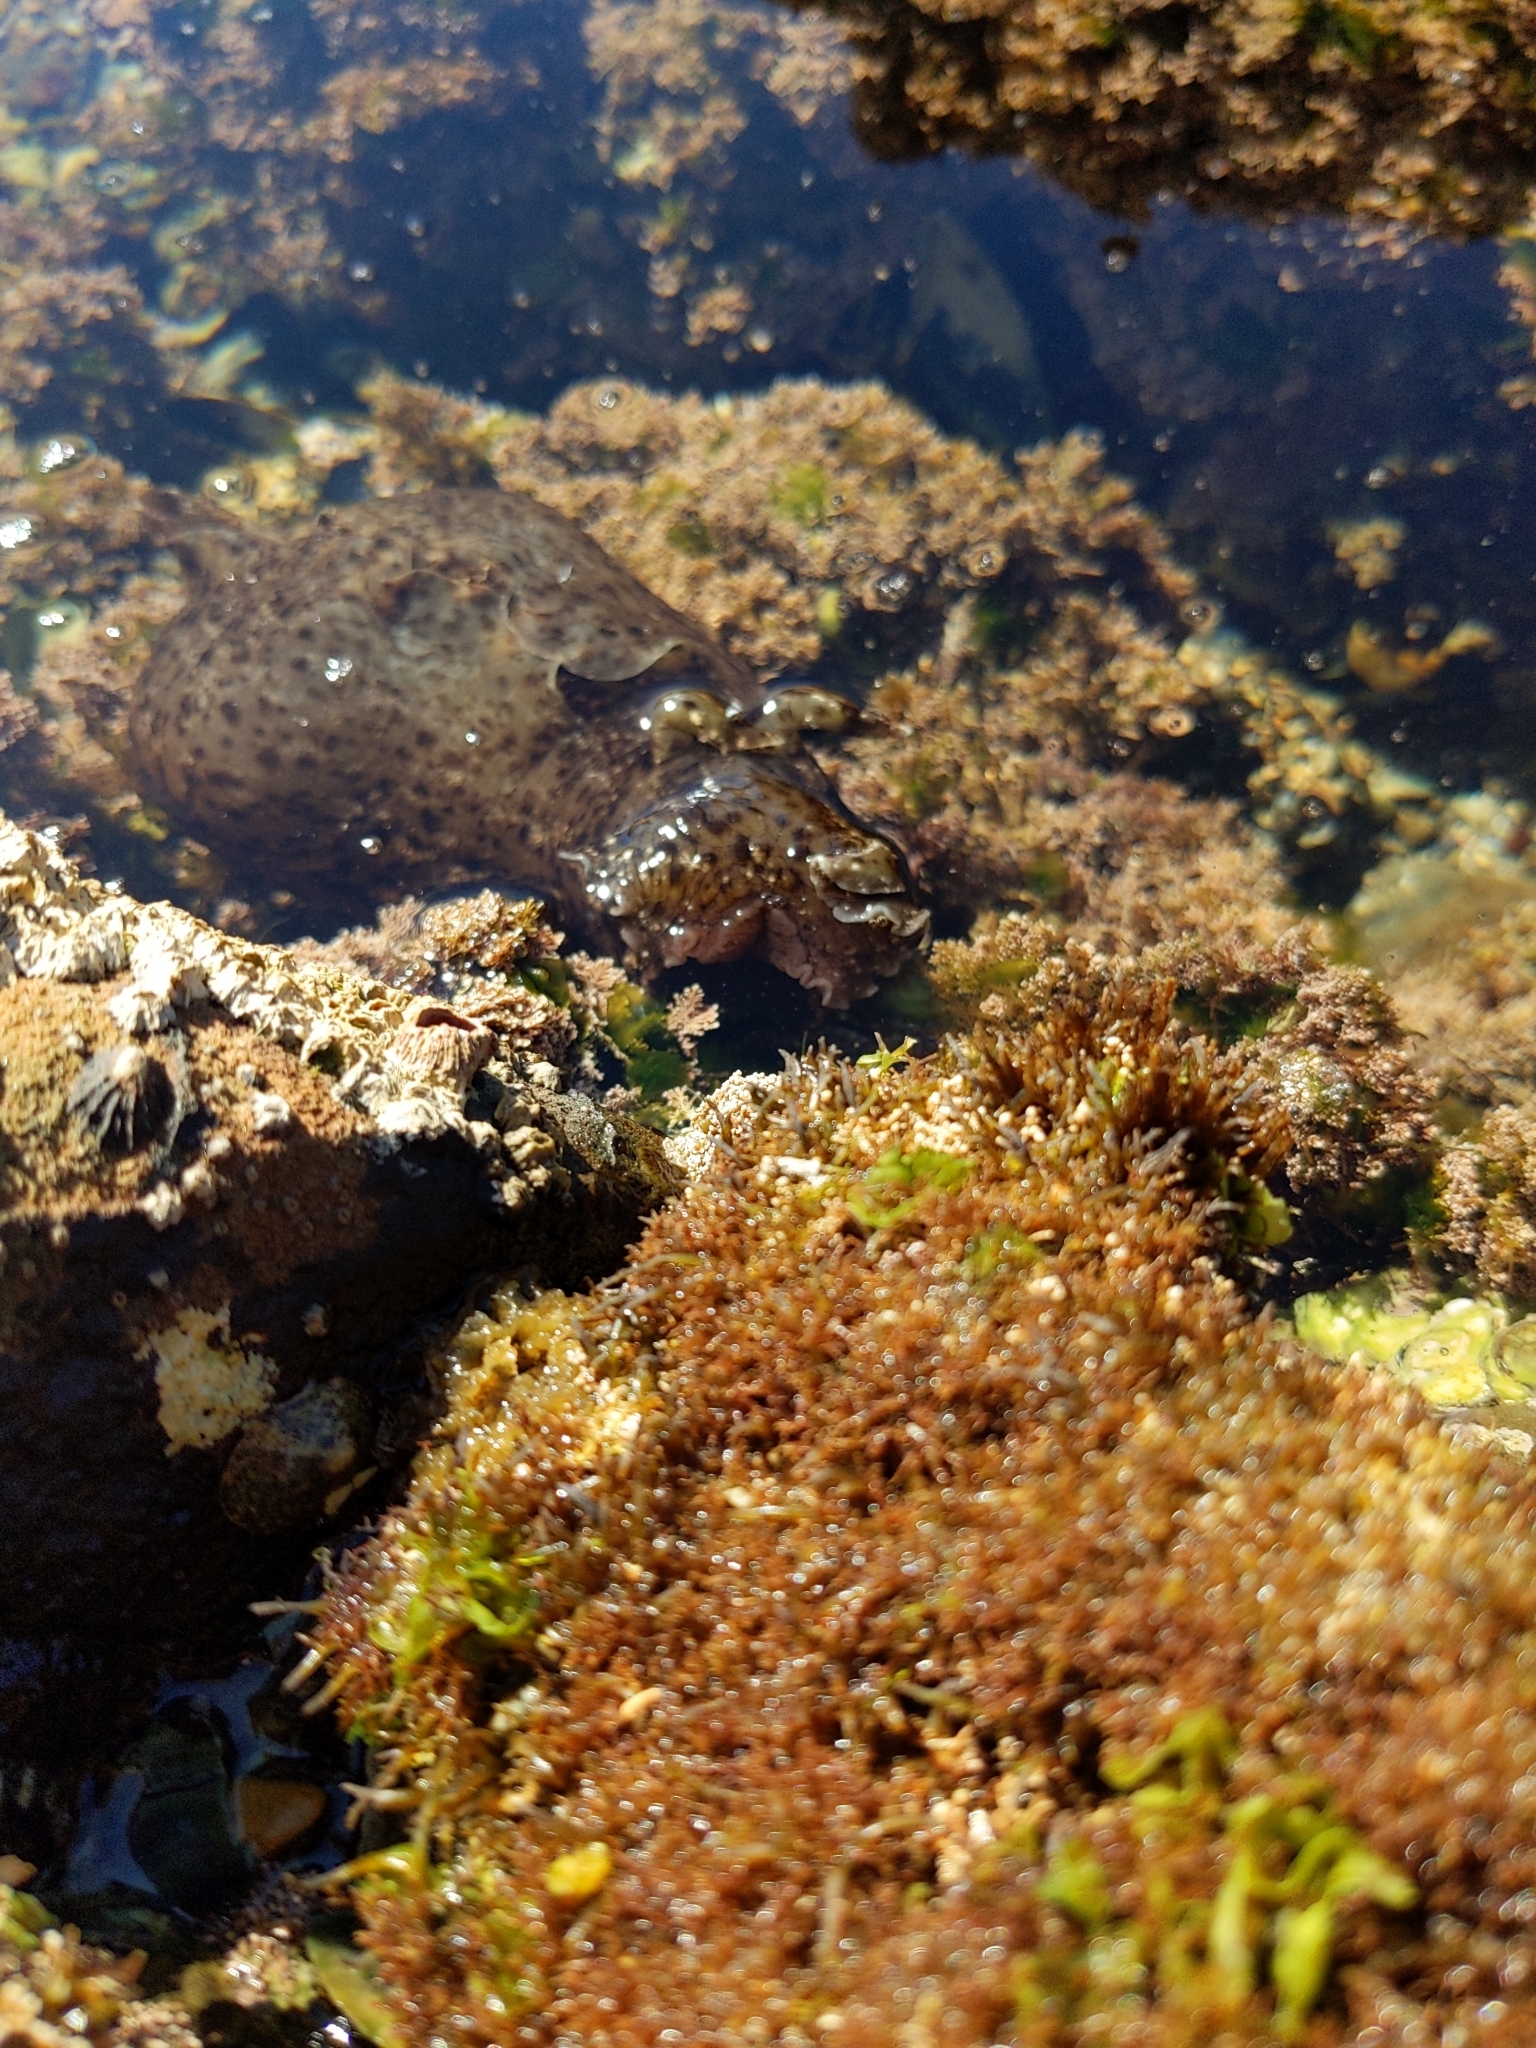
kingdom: Animalia
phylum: Mollusca
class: Gastropoda
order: Aplysiida
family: Aplysiidae
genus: Aplysia
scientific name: Aplysia californica
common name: California seahare
